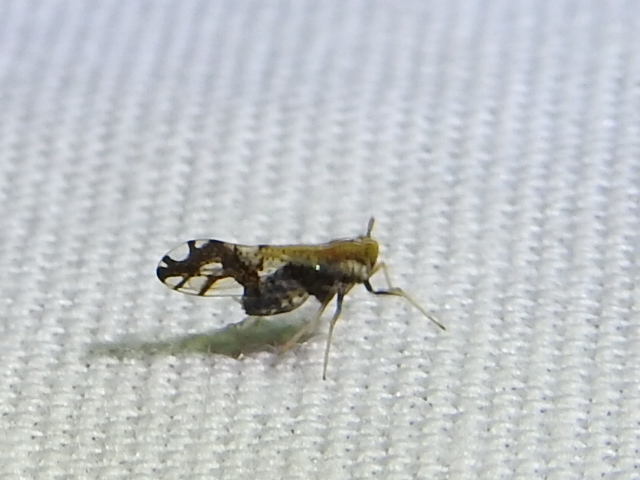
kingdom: Animalia
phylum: Arthropoda
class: Insecta
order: Hemiptera
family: Delphacidae
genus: Liburniella
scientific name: Liburniella ornata
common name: Ornate planthopper
